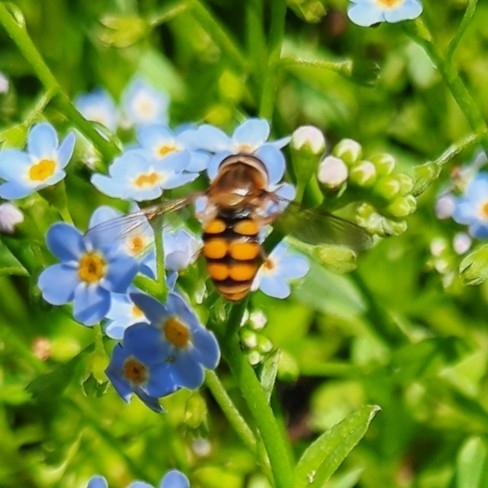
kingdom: Animalia
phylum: Arthropoda
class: Insecta
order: Diptera
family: Syrphidae
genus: Eupeodes
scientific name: Eupeodes corollae
